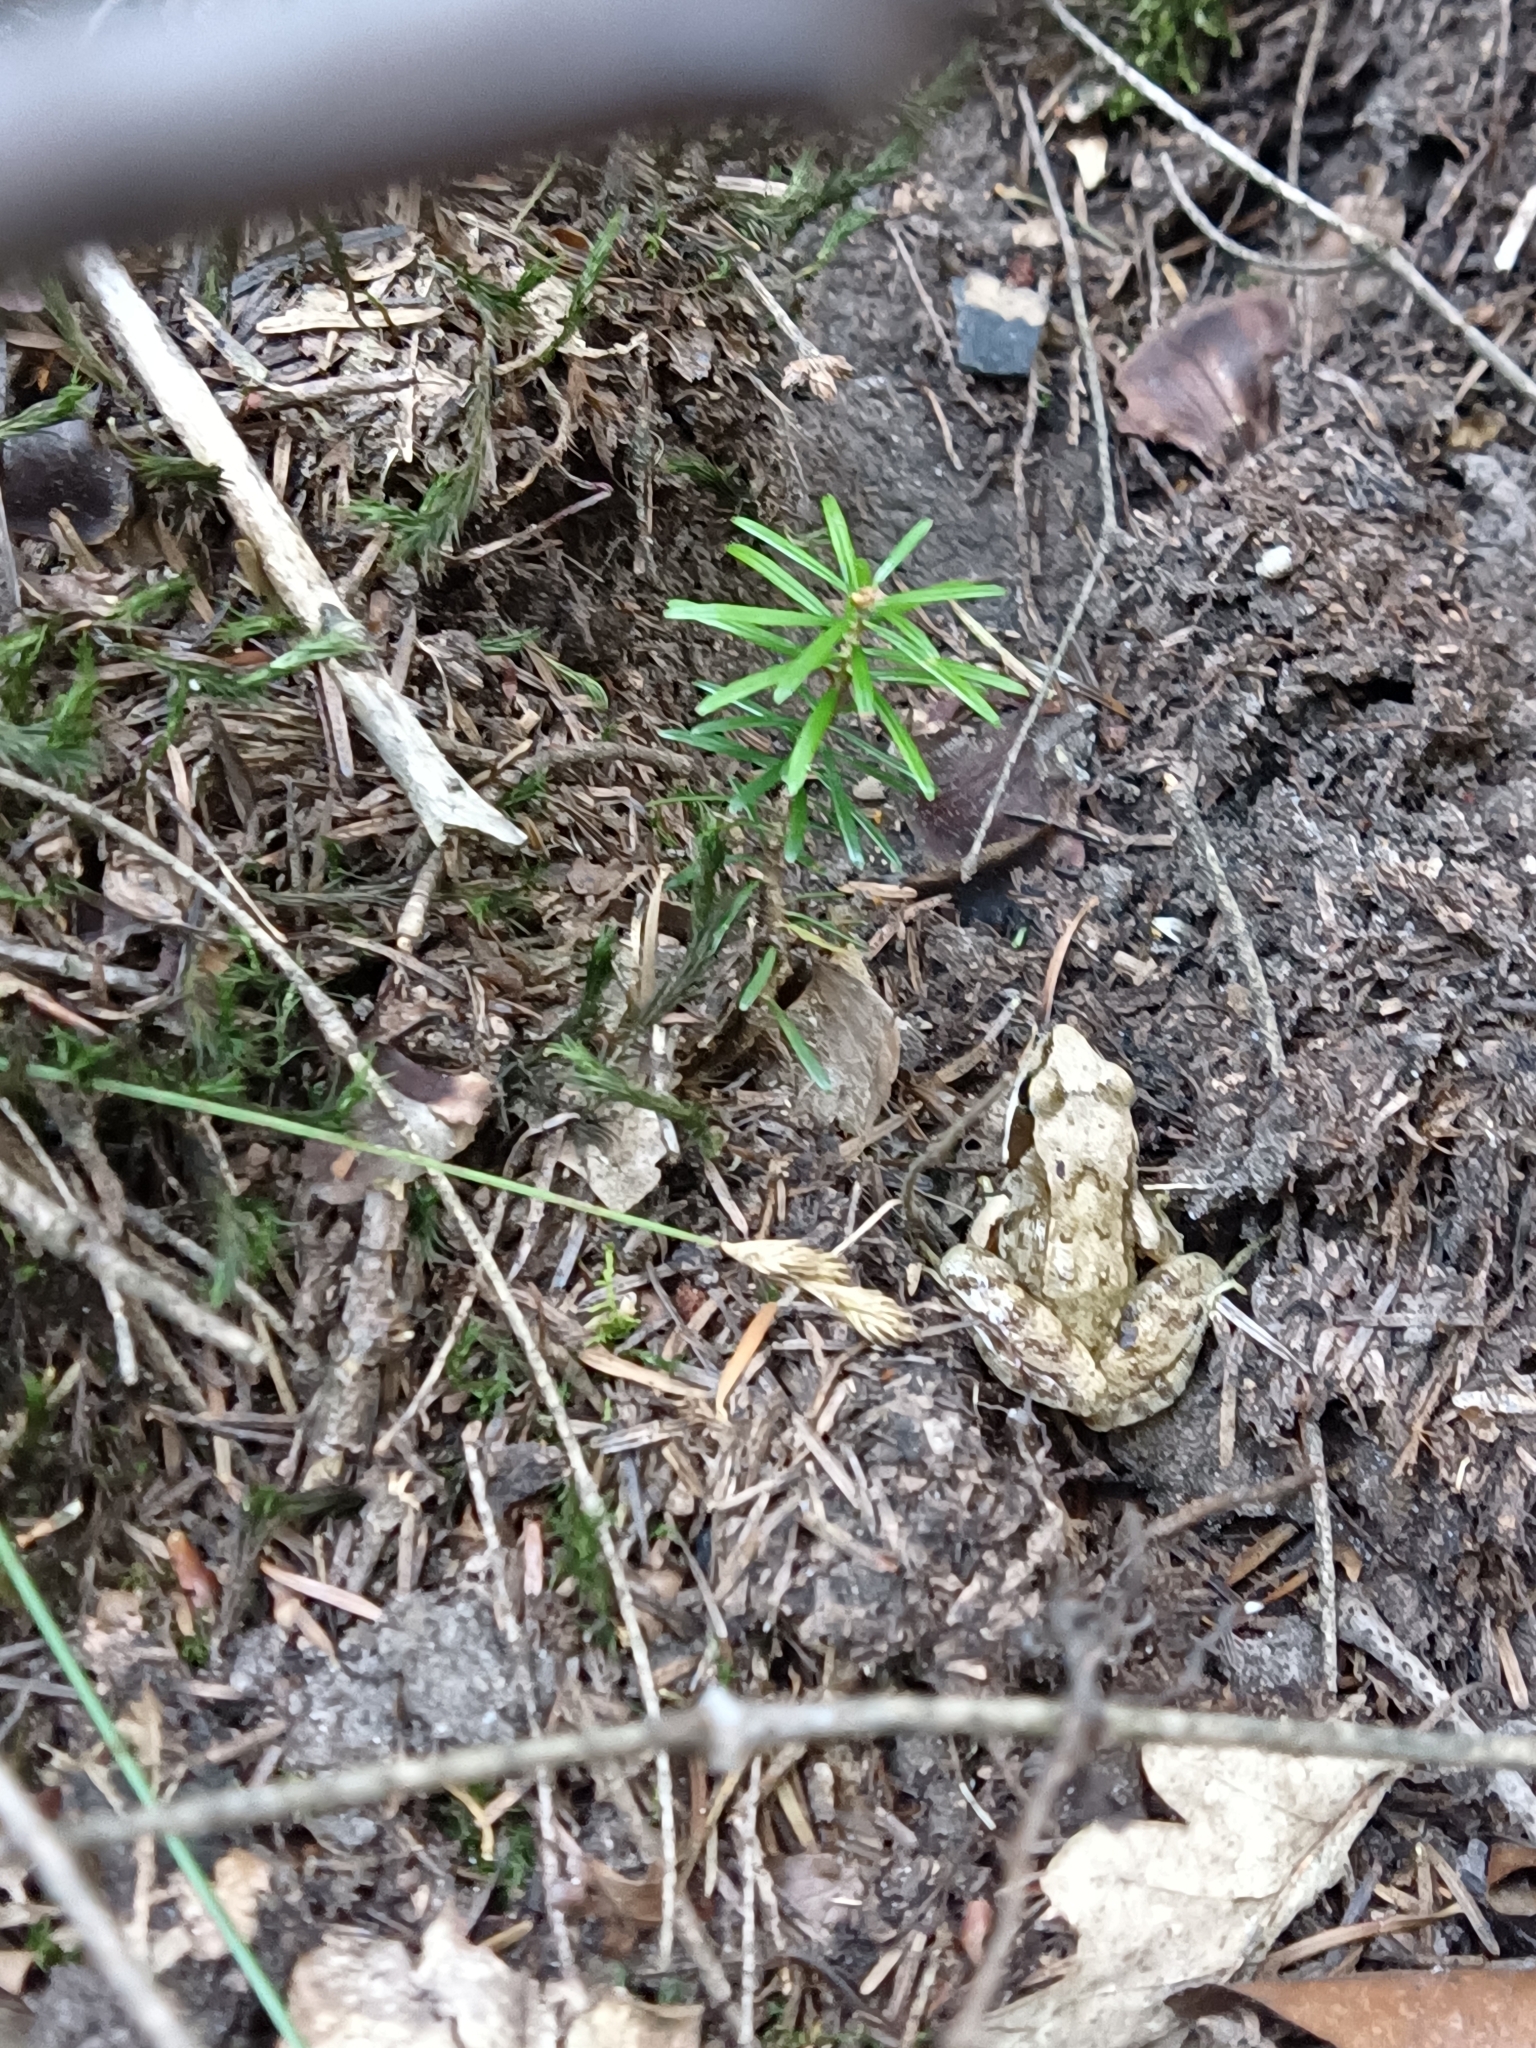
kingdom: Animalia
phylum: Chordata
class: Amphibia
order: Anura
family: Ranidae
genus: Rana
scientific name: Rana temporaria
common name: Common frog
